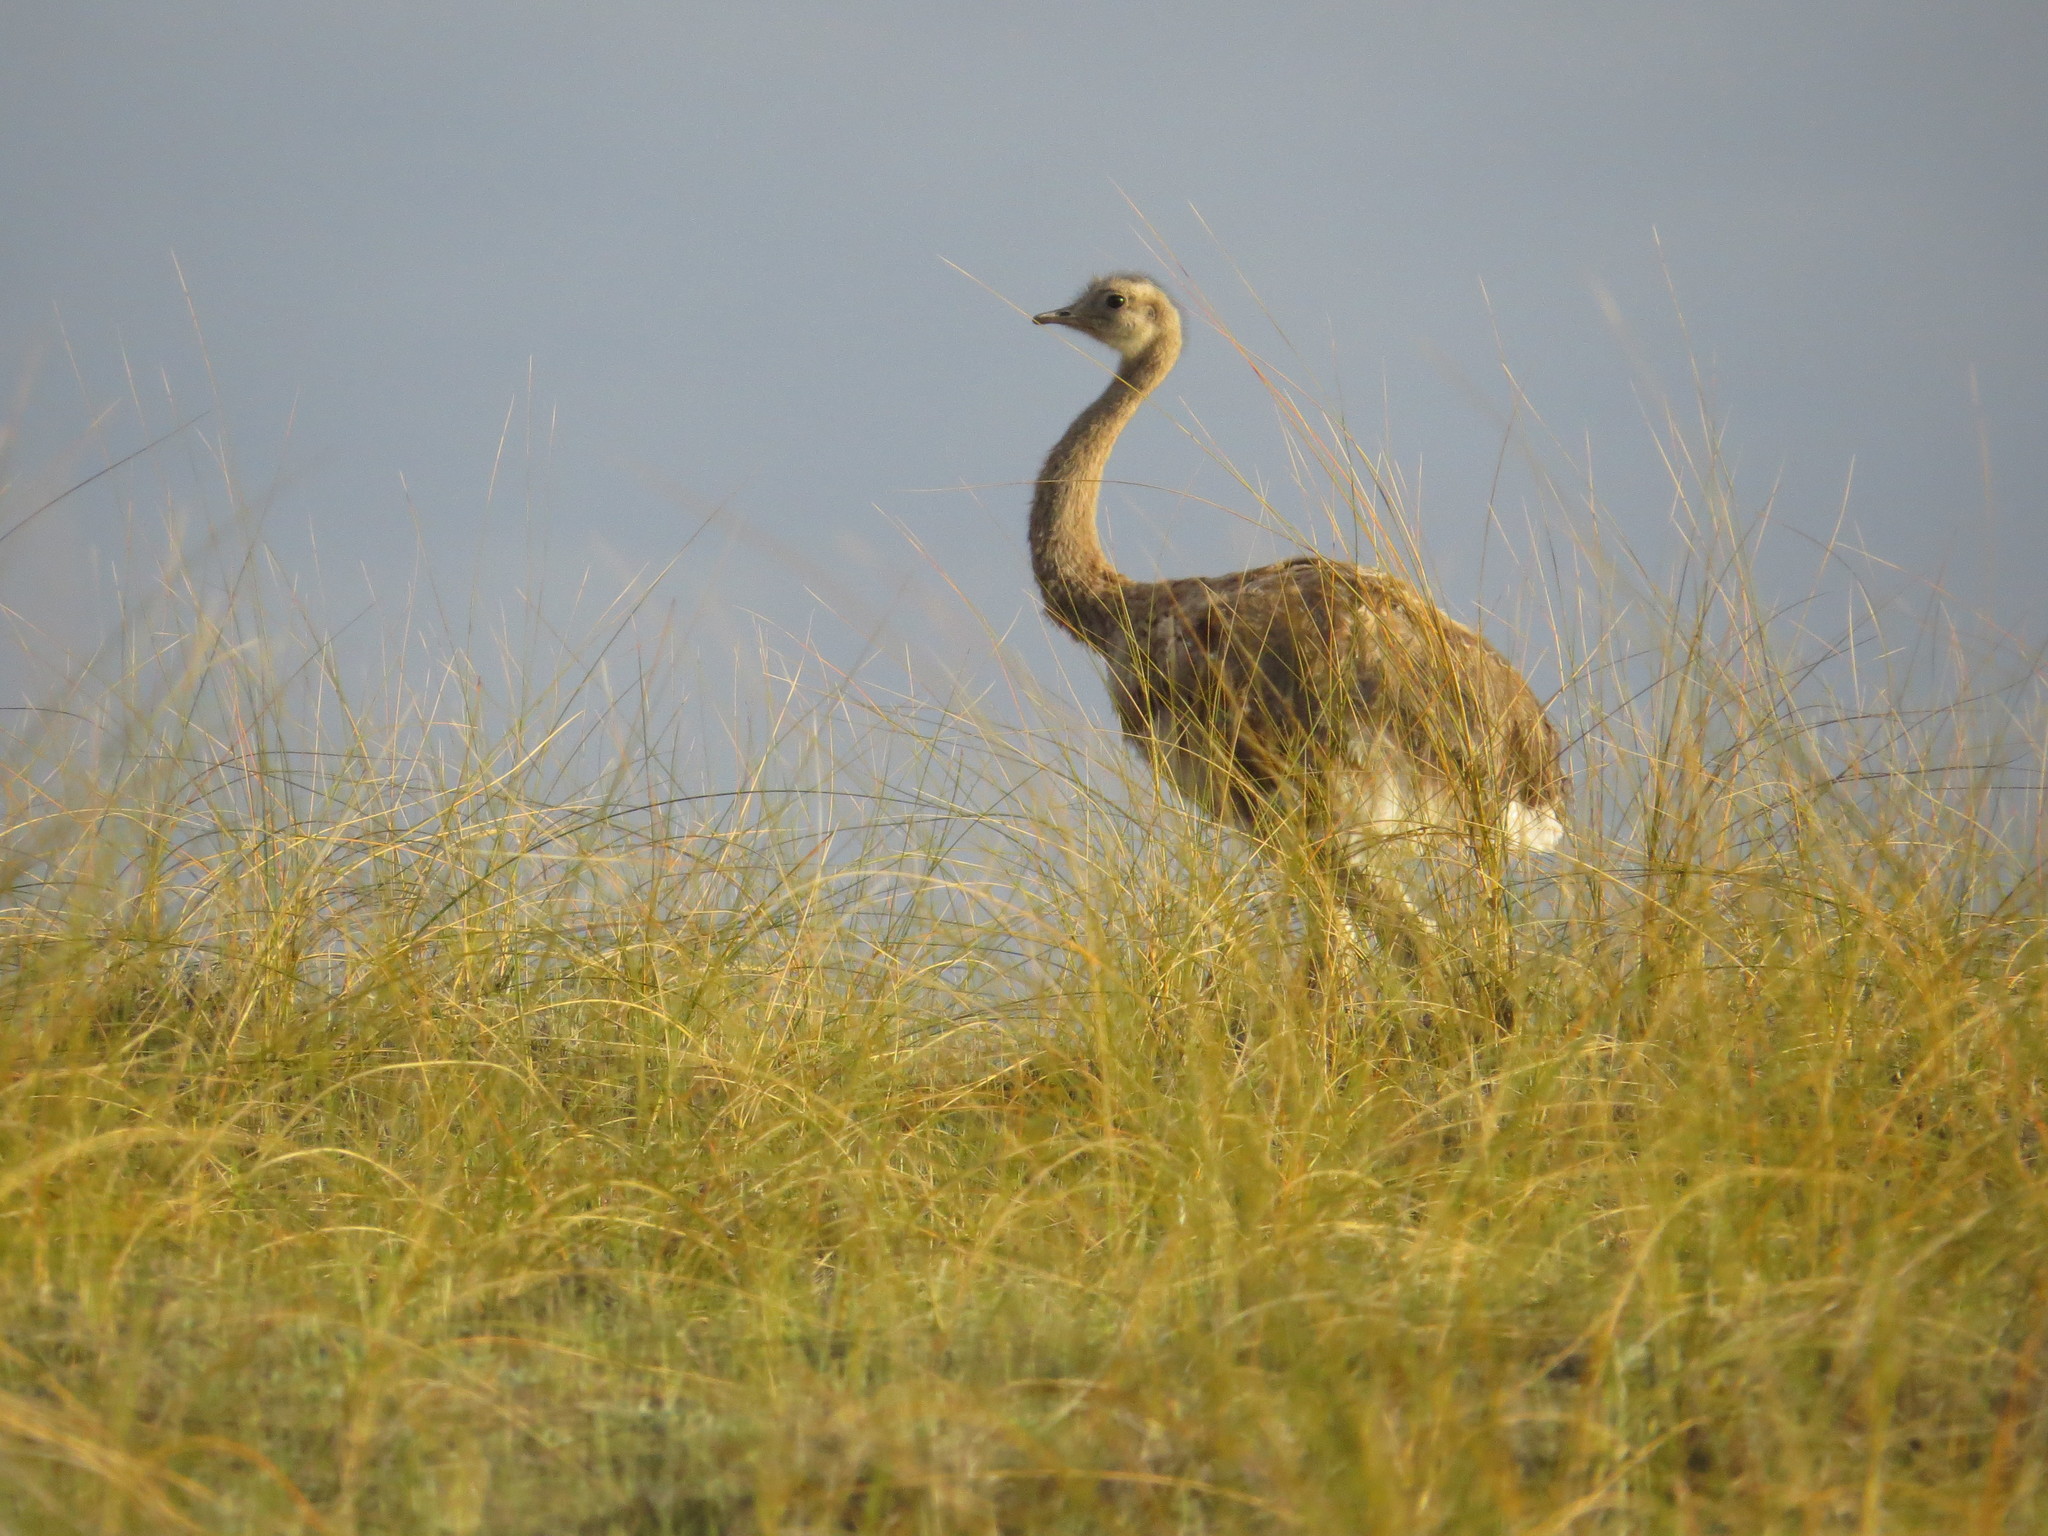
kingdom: Animalia
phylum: Chordata
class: Aves
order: Rheiformes
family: Rheidae
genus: Rhea
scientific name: Rhea pennata
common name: Lesser rhea
